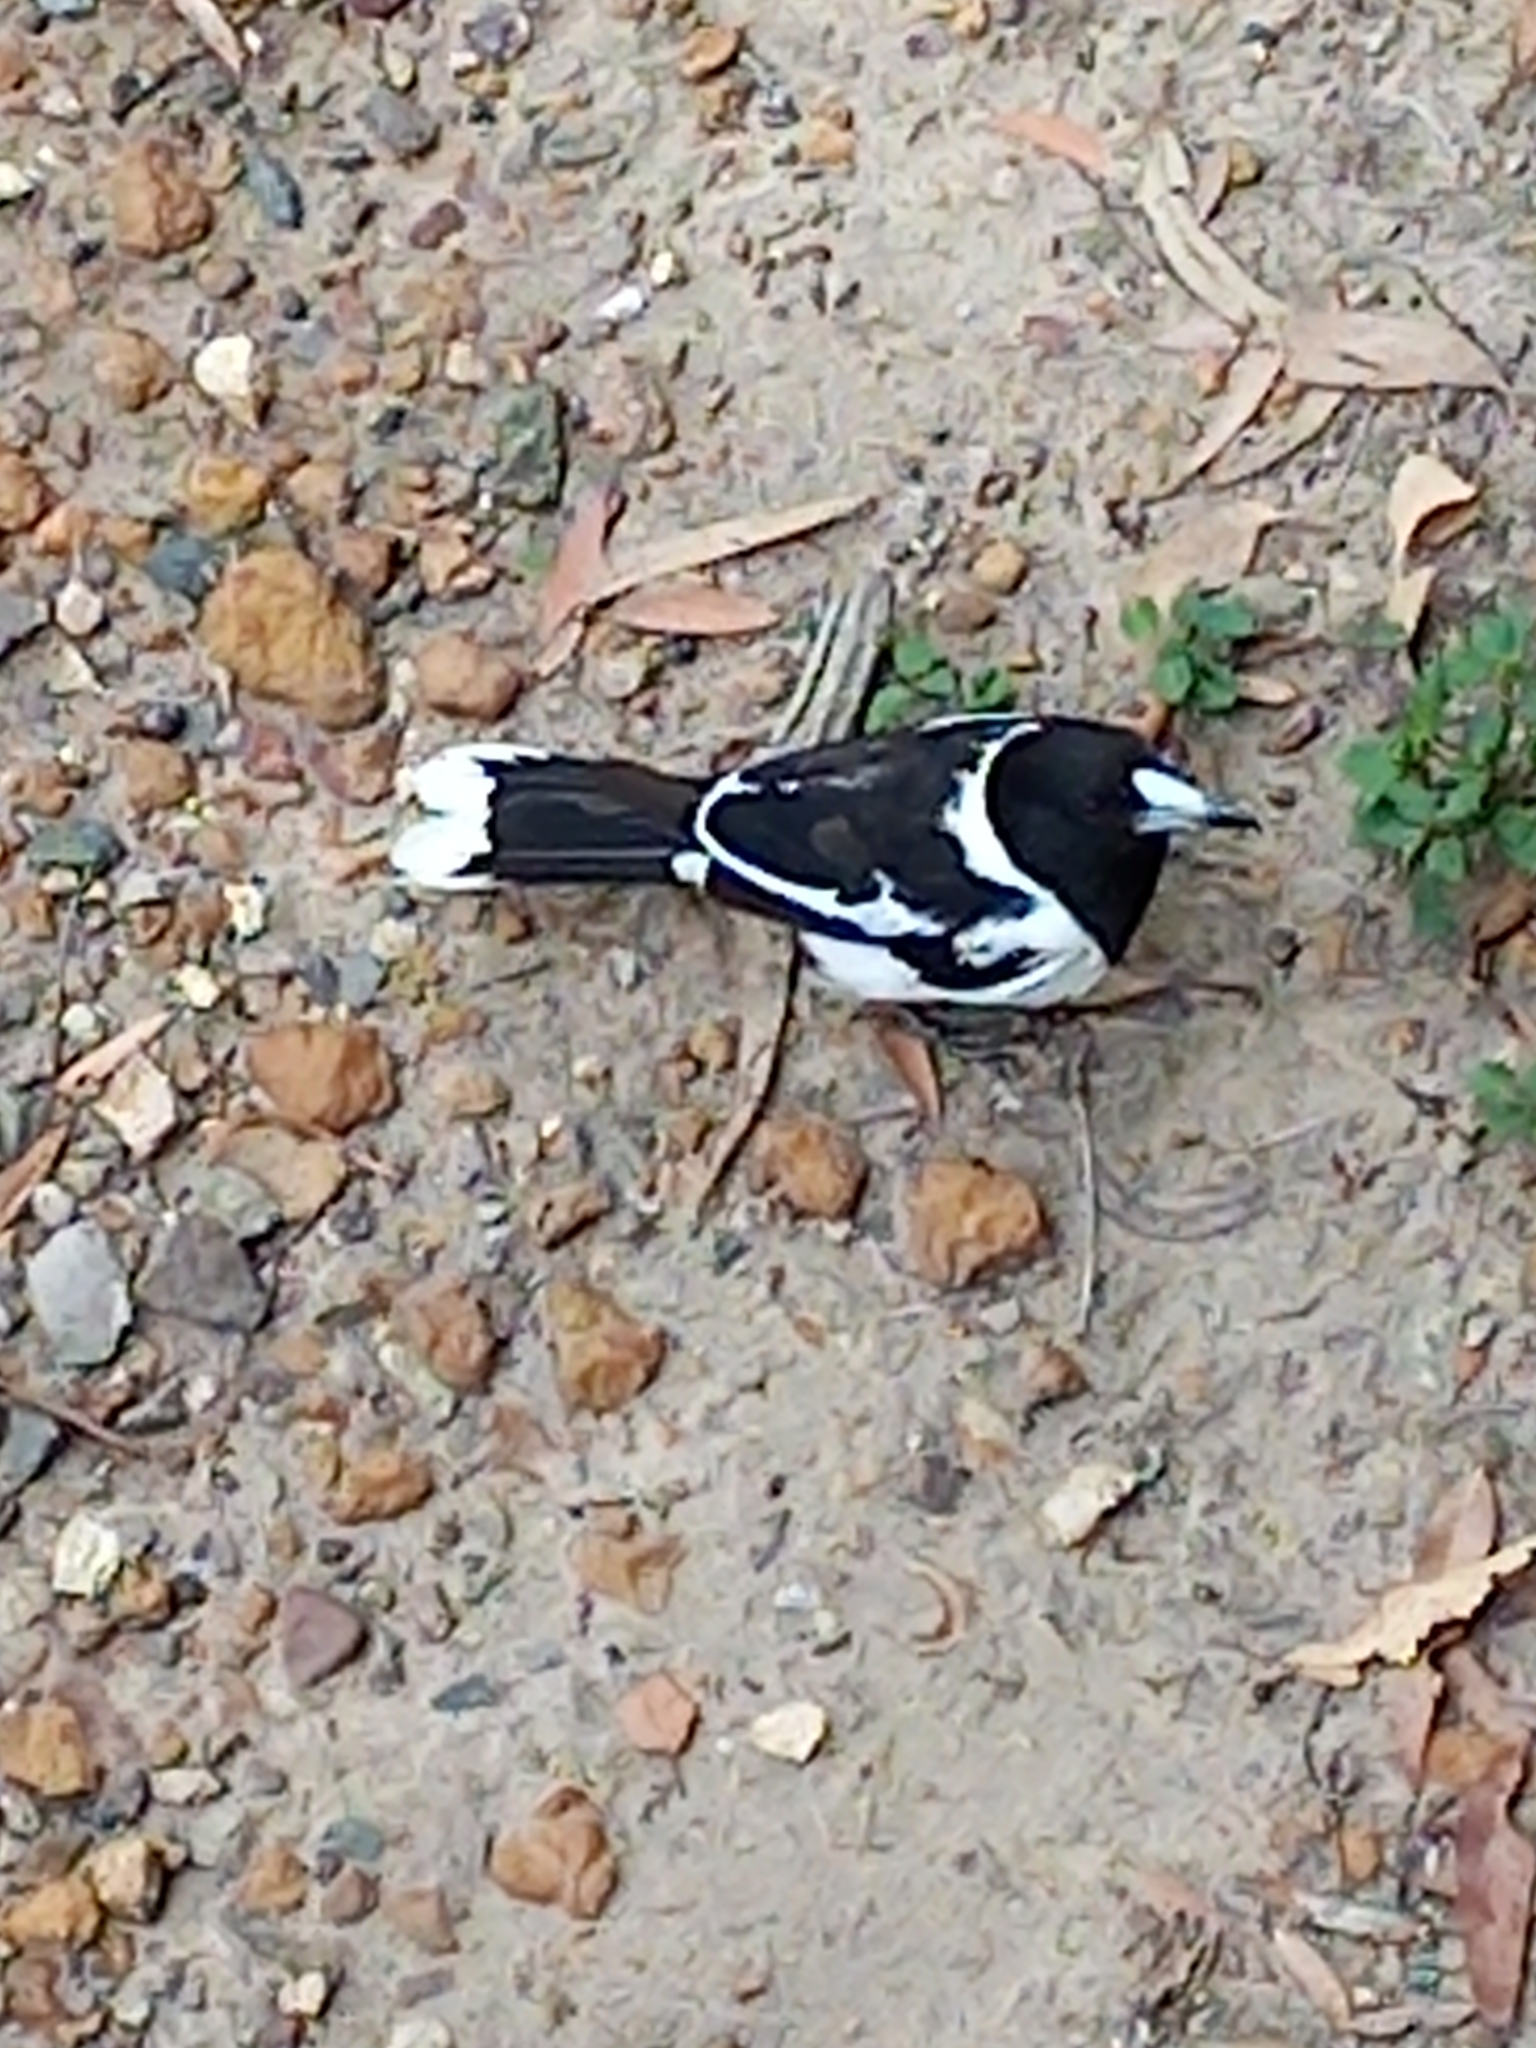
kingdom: Animalia
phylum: Chordata
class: Aves
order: Passeriformes
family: Cracticidae
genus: Cracticus
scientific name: Cracticus nigrogularis
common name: Pied butcherbird
